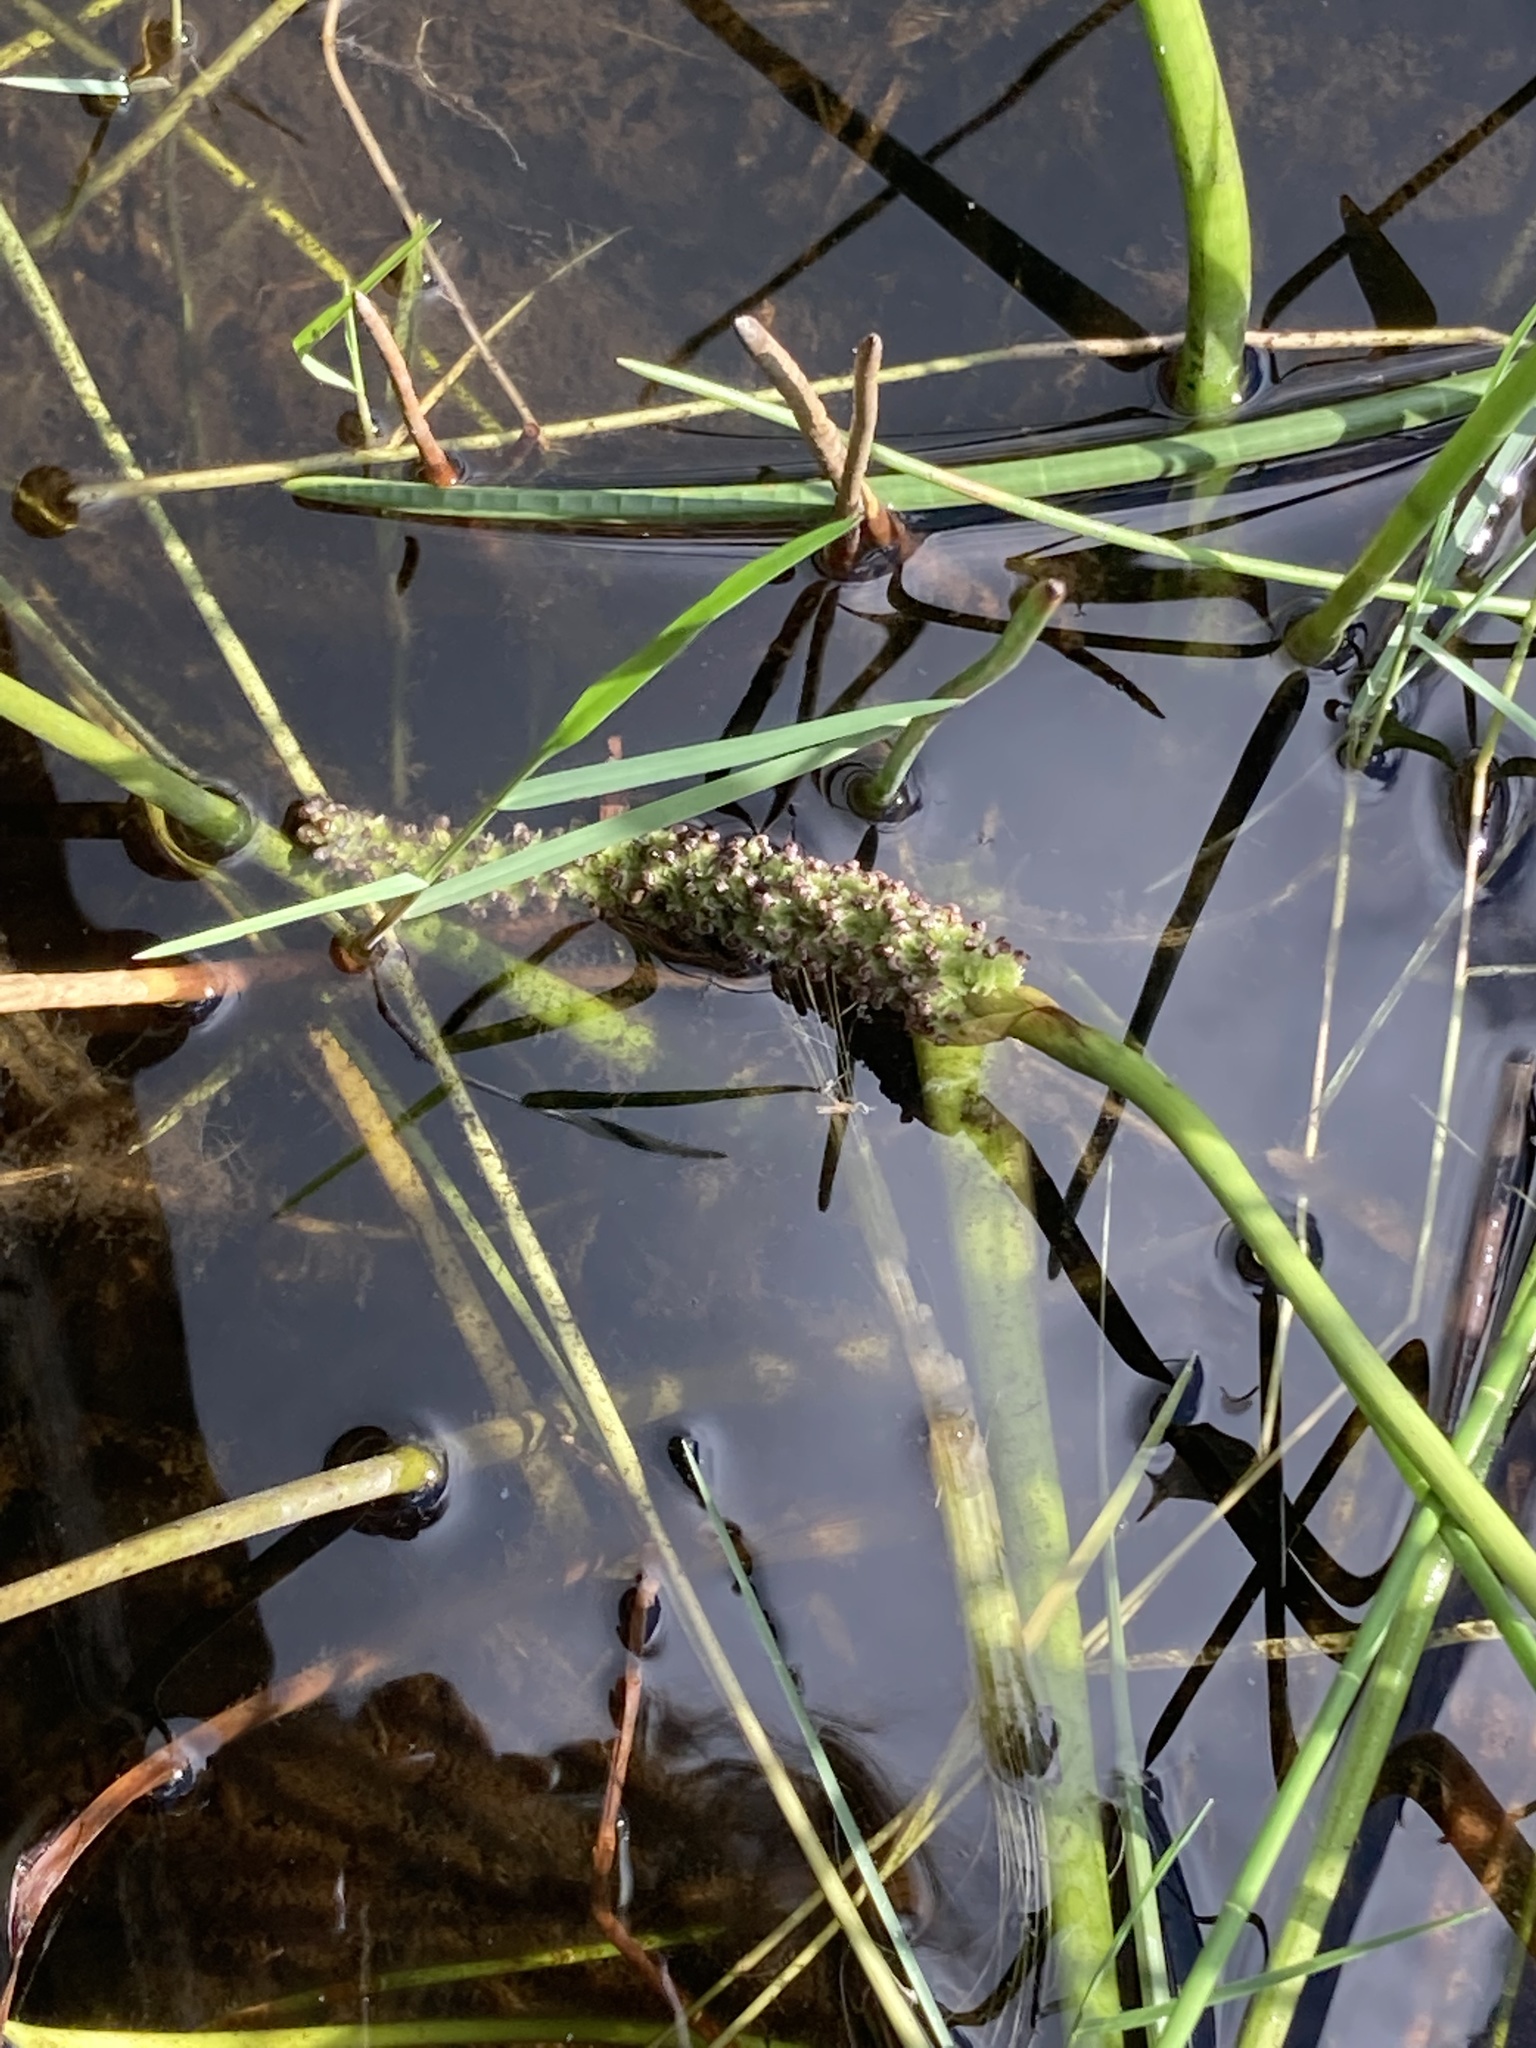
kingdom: Plantae
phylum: Tracheophyta
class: Liliopsida
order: Commelinales
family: Pontederiaceae
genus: Pontederia
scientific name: Pontederia cordata
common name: Pickerelweed
